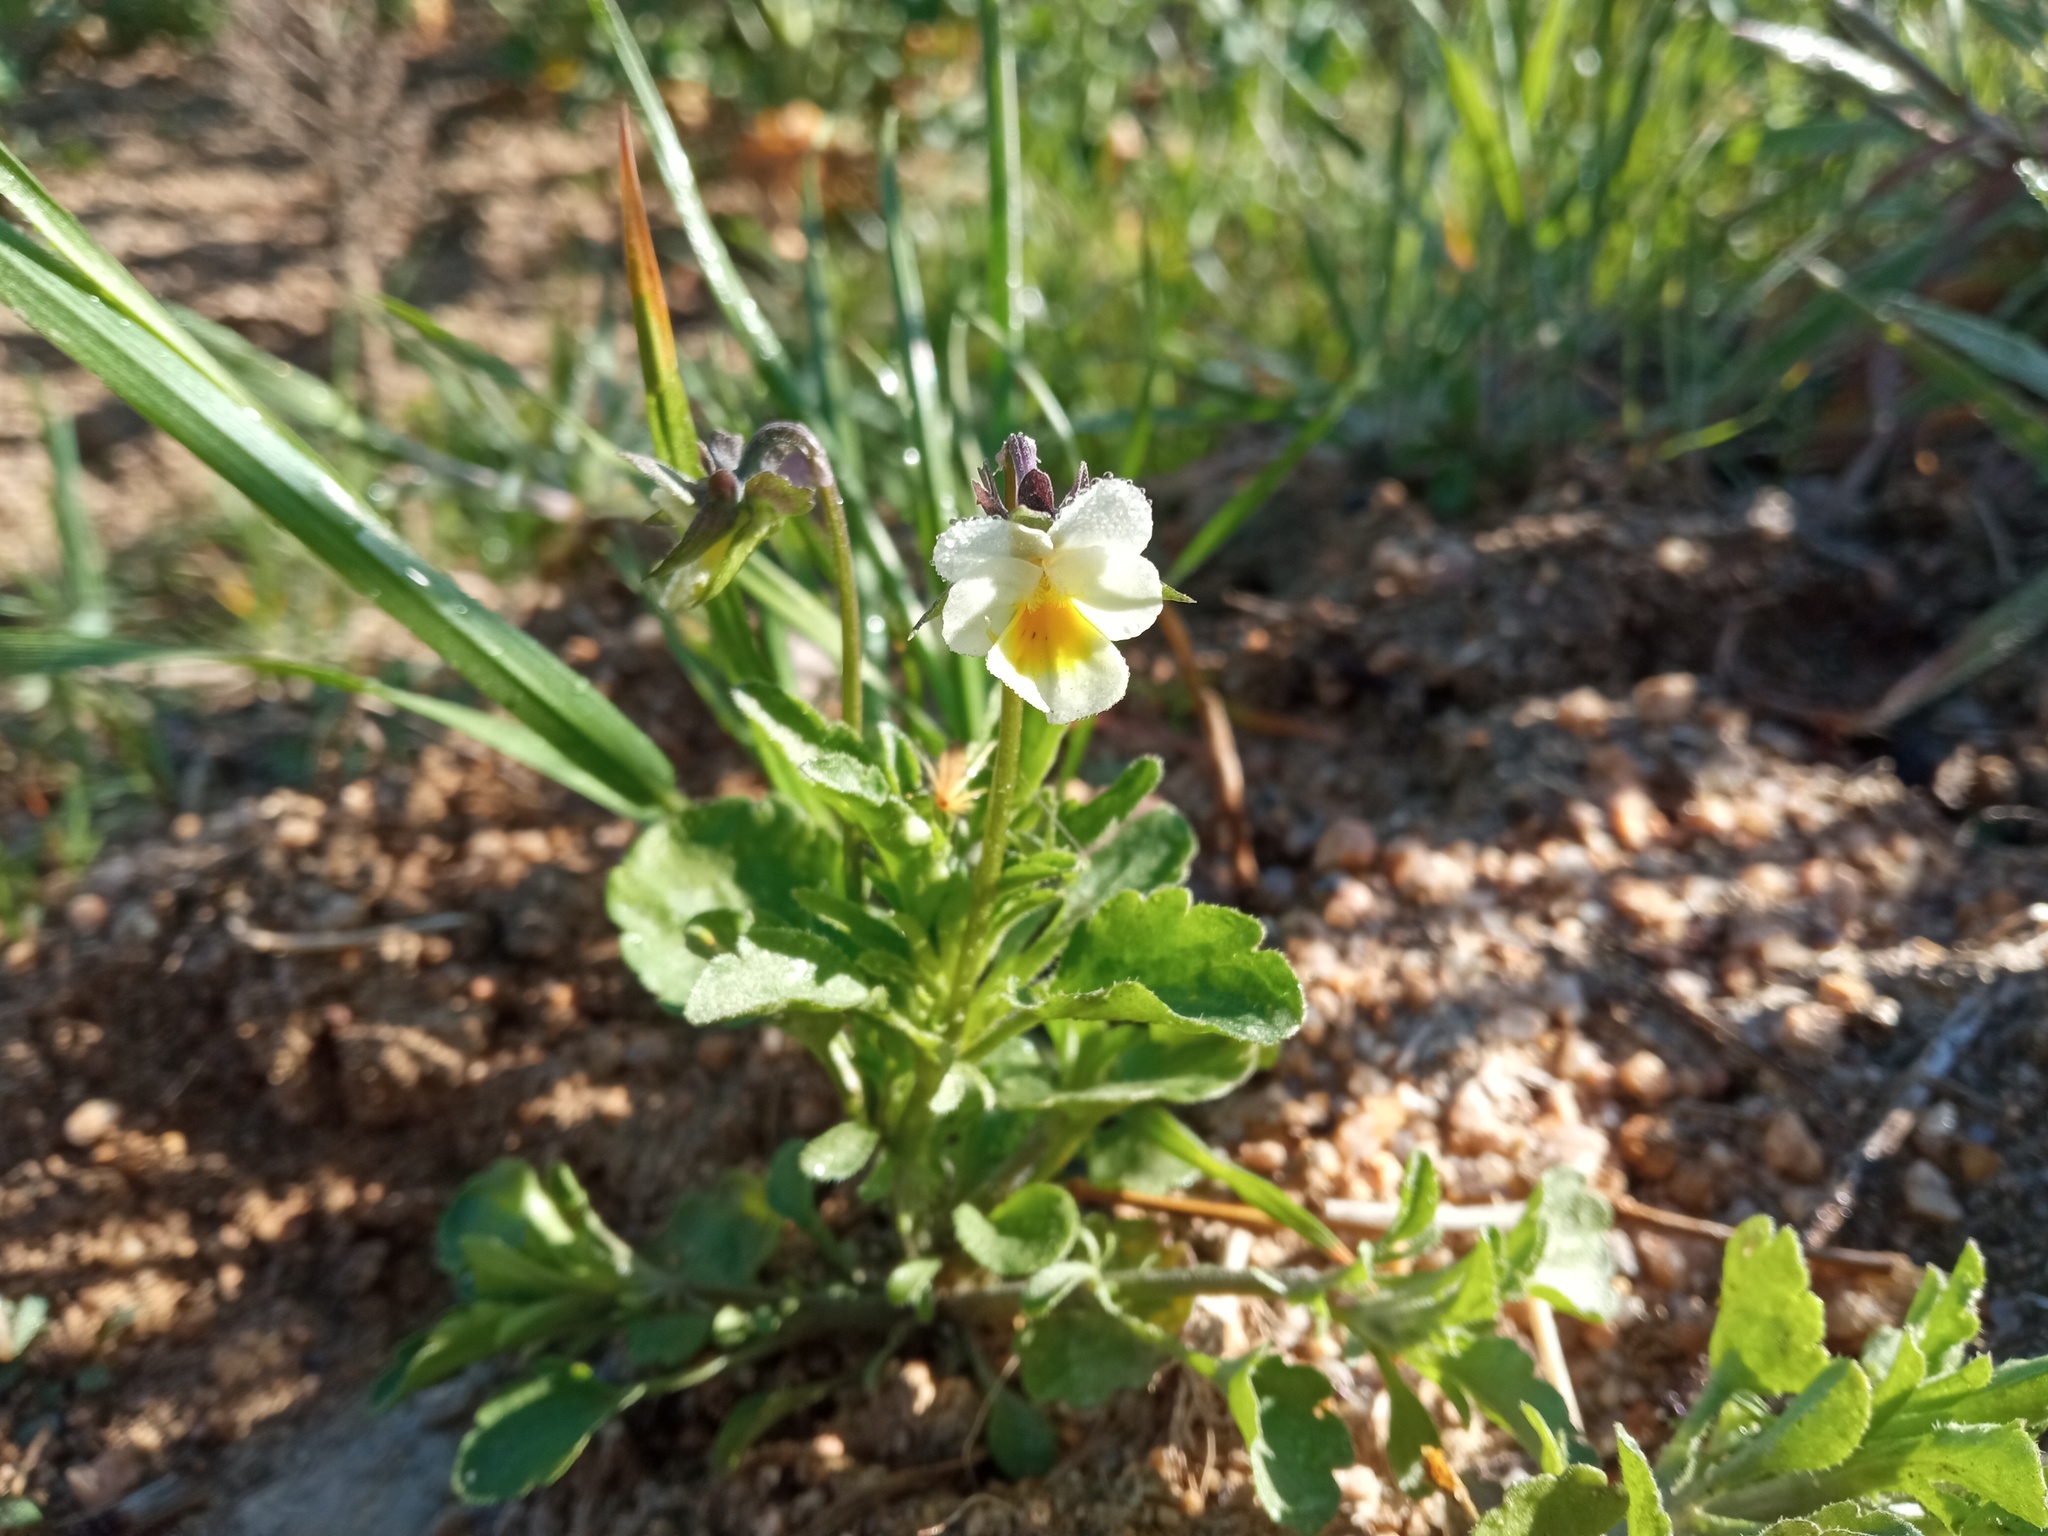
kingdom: Plantae
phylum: Tracheophyta
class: Magnoliopsida
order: Malpighiales
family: Violaceae
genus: Viola
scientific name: Viola arvensis
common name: Field pansy
